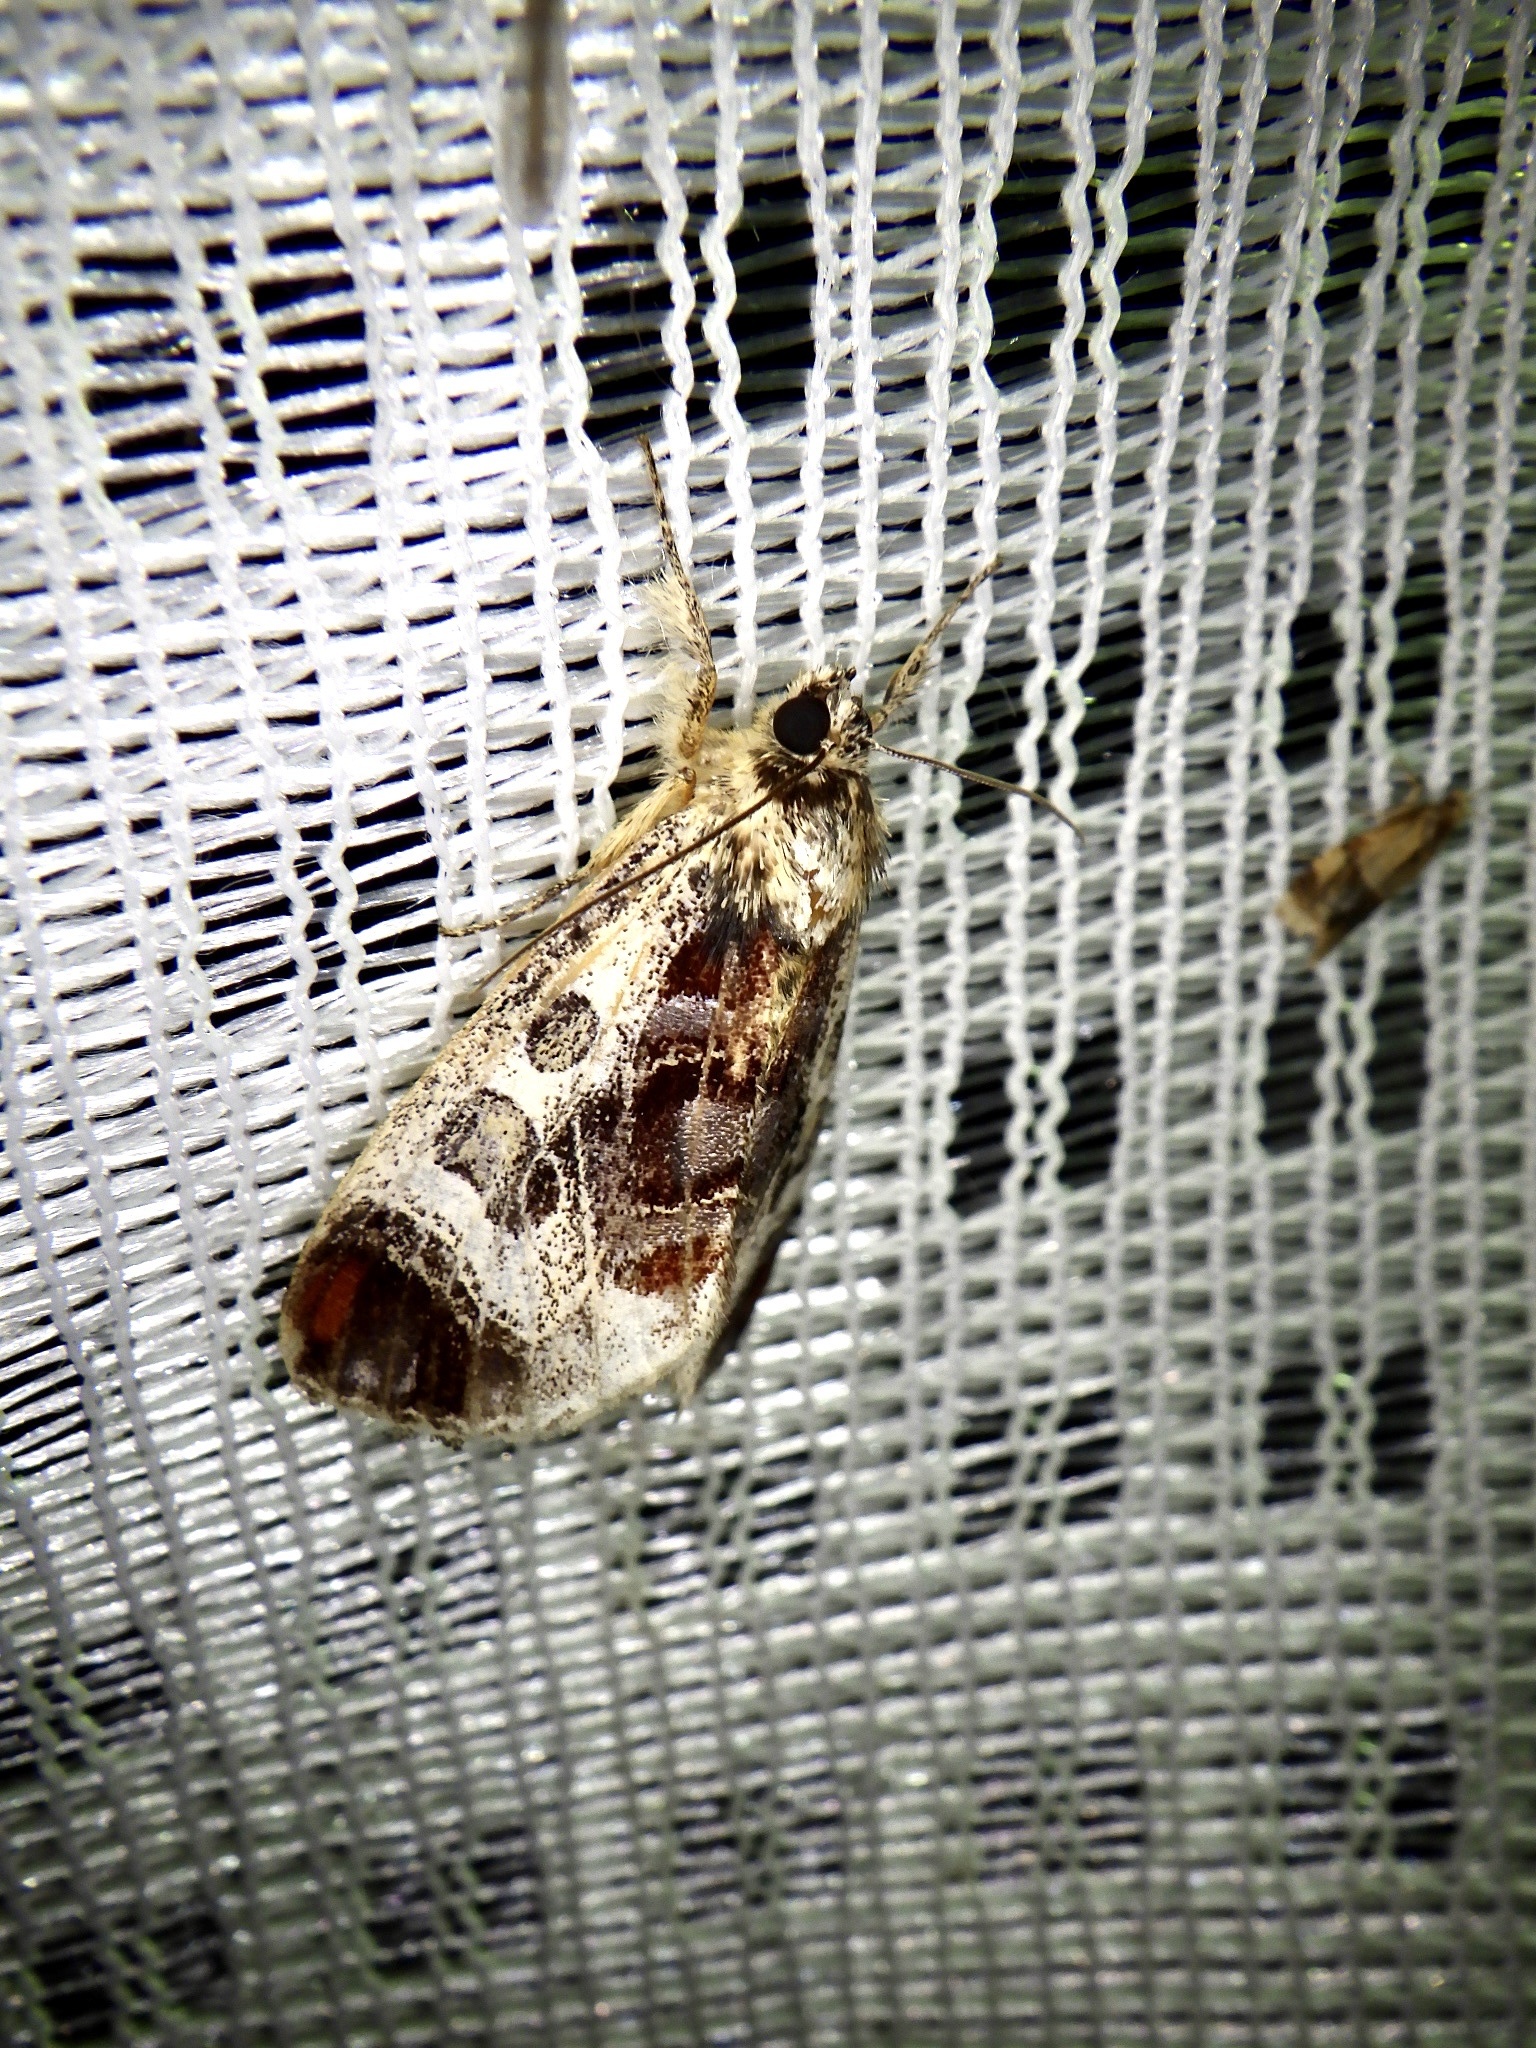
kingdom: Animalia
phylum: Arthropoda
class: Insecta
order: Lepidoptera
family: Noctuidae
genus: Sarbanissa
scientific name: Sarbanissa venusta
